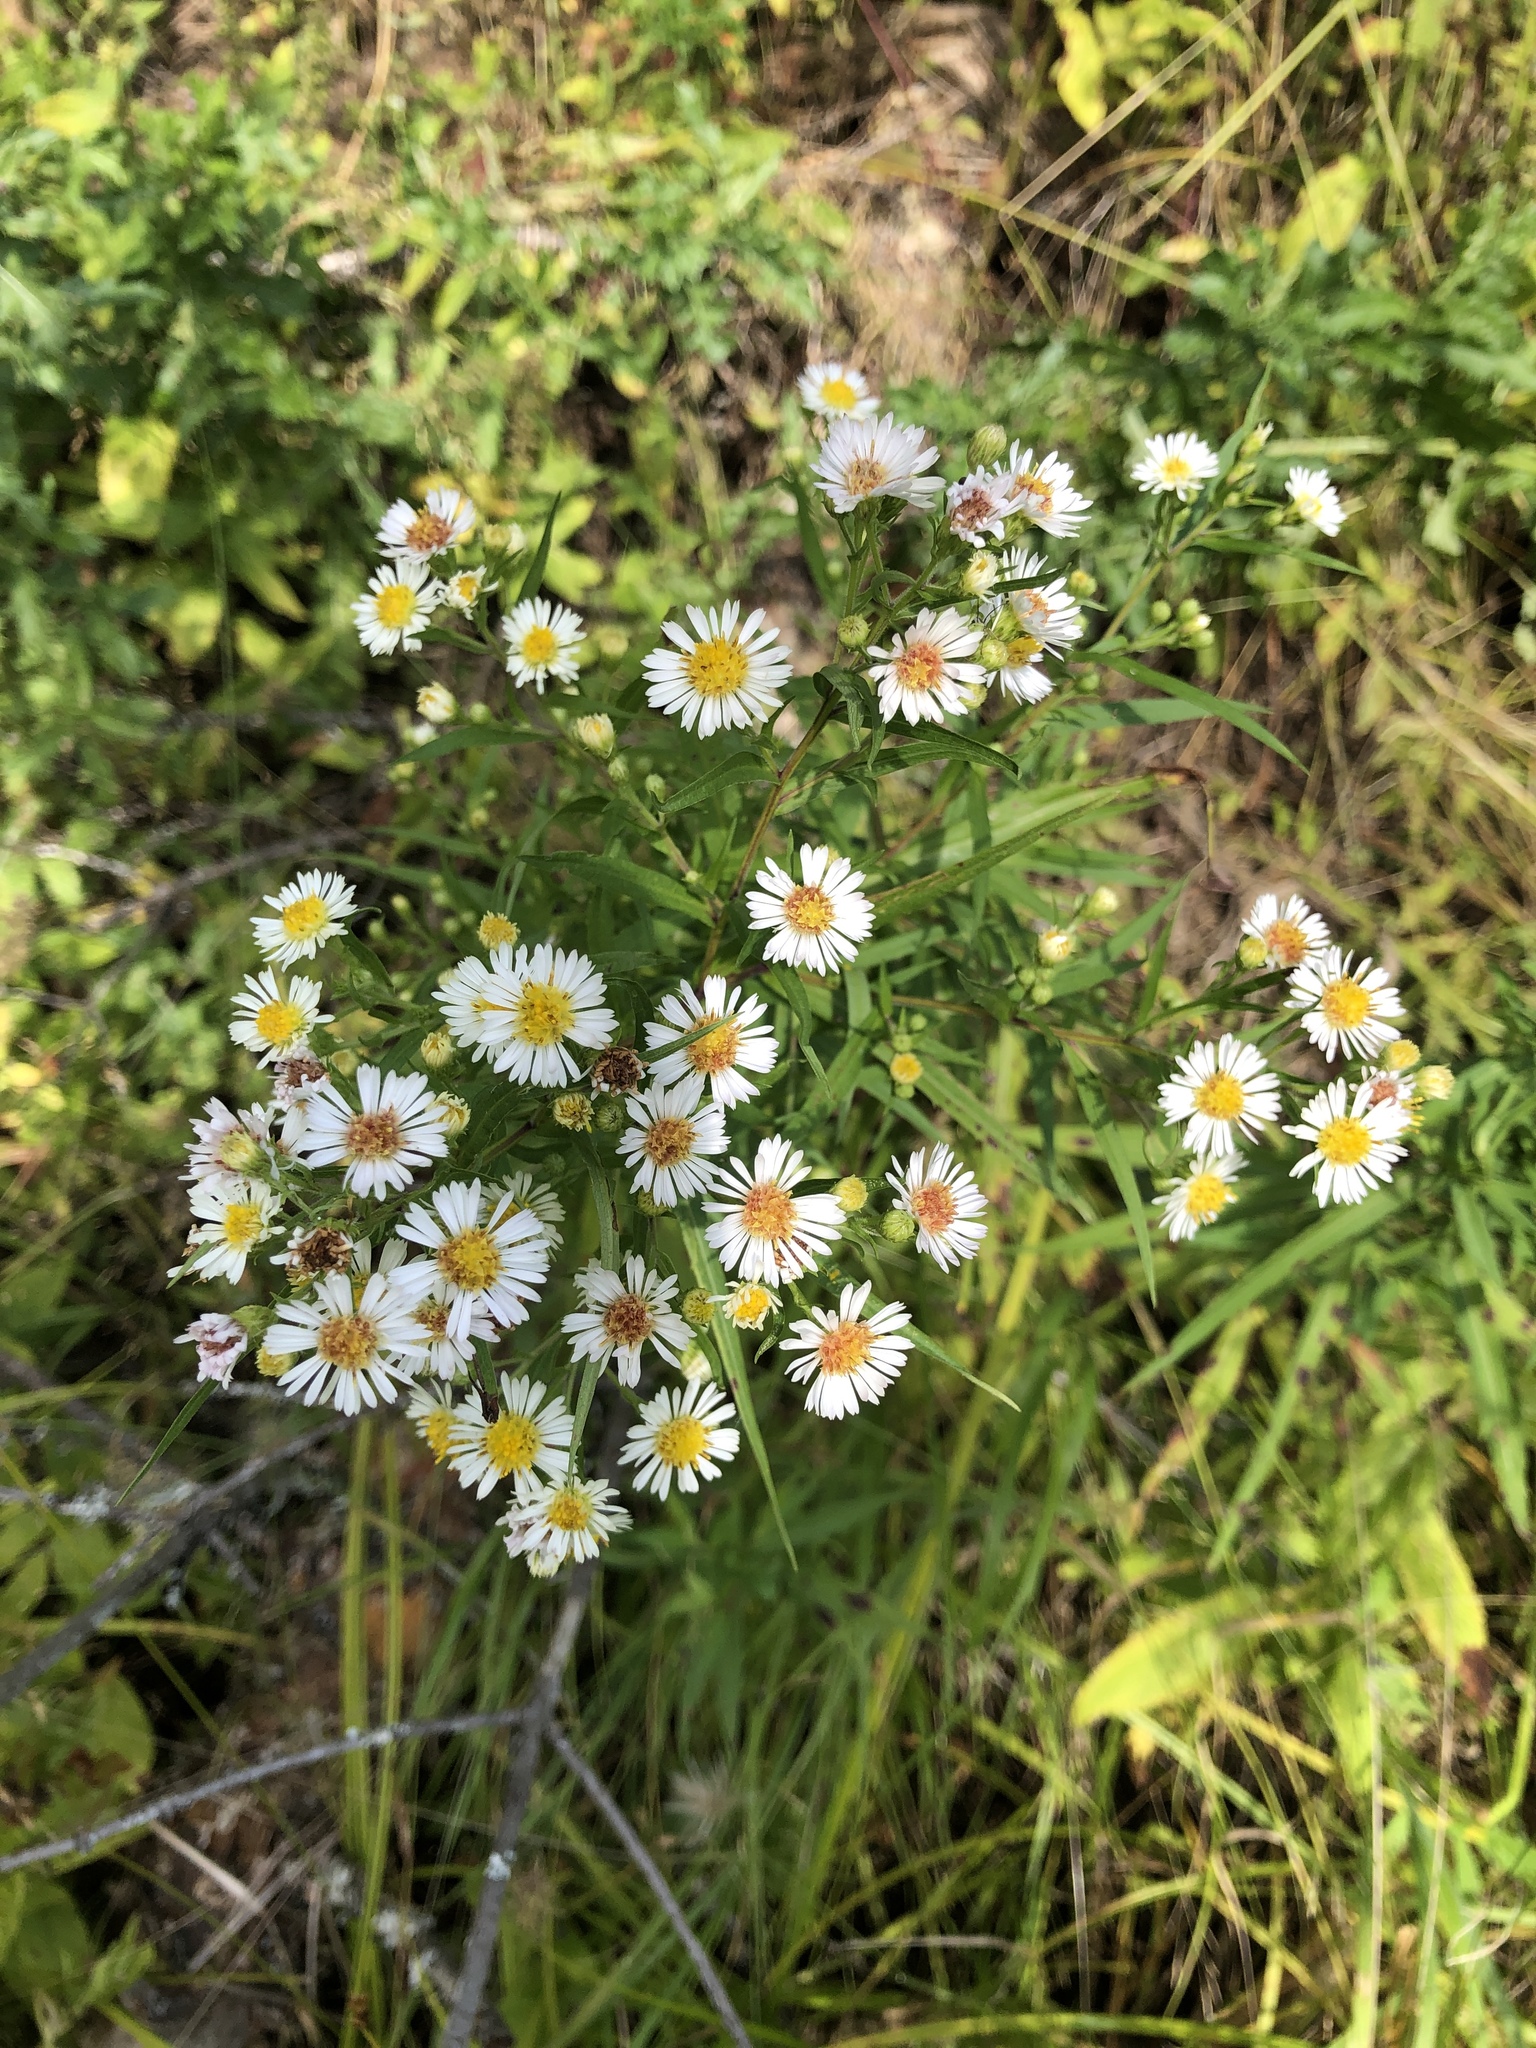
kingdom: Plantae
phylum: Tracheophyta
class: Magnoliopsida
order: Asterales
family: Asteraceae
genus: Symphyotrichum
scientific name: Symphyotrichum lanceolatum
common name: Panicled aster
